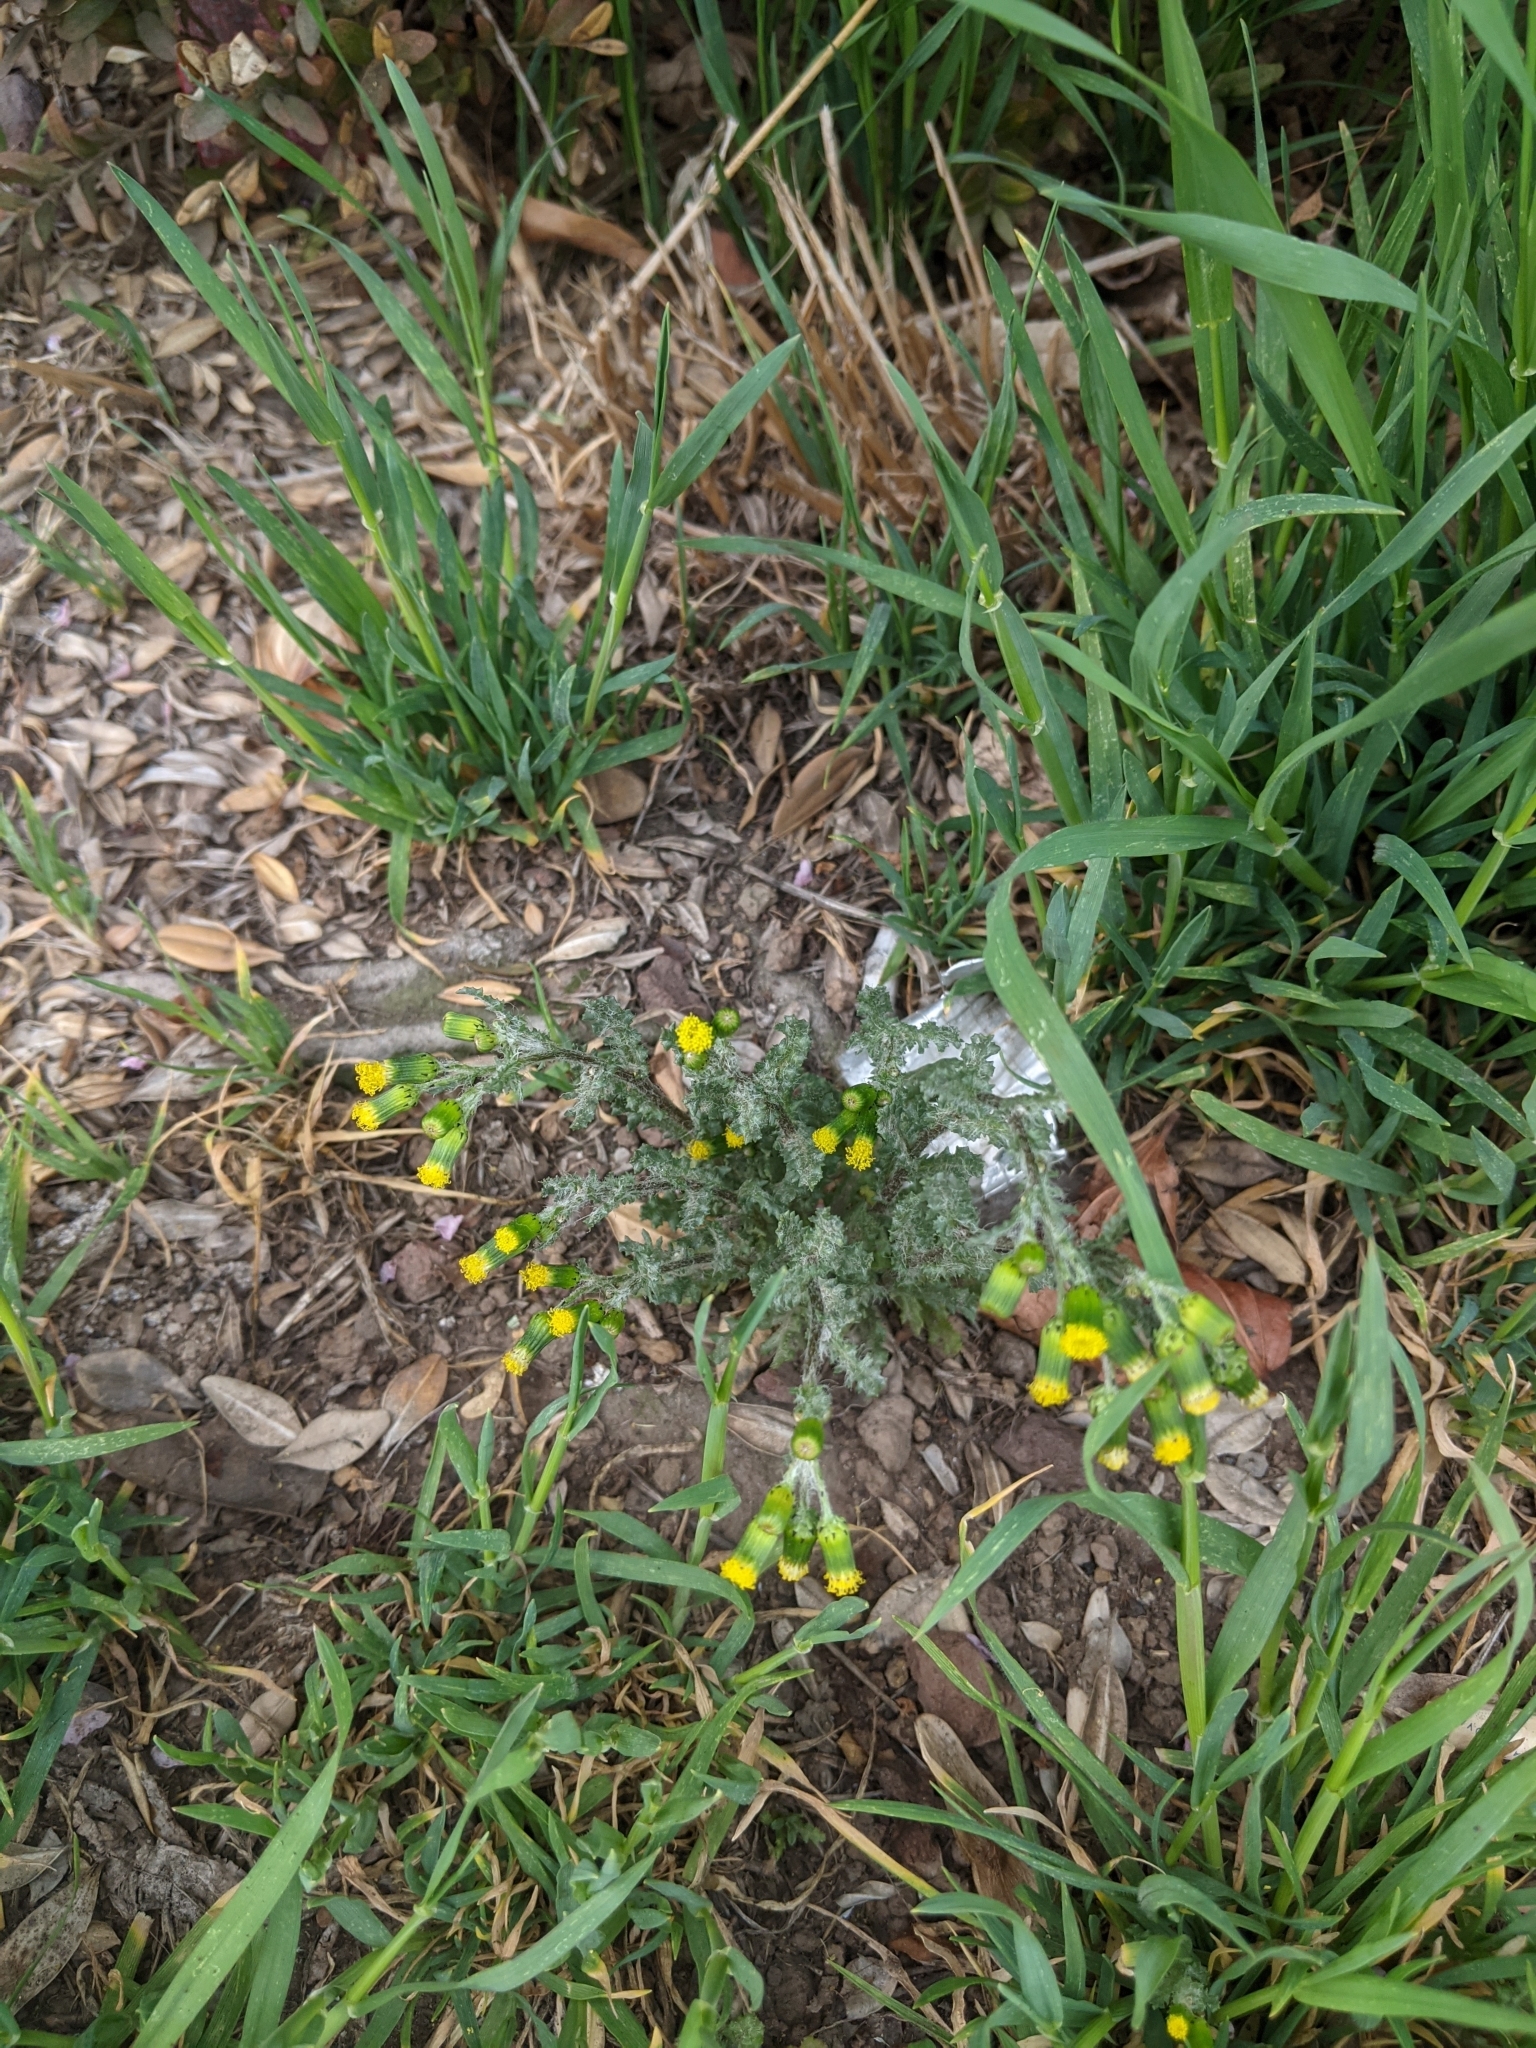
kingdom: Plantae
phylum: Tracheophyta
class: Magnoliopsida
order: Asterales
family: Asteraceae
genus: Senecio
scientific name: Senecio vulgaris
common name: Old-man-in-the-spring
